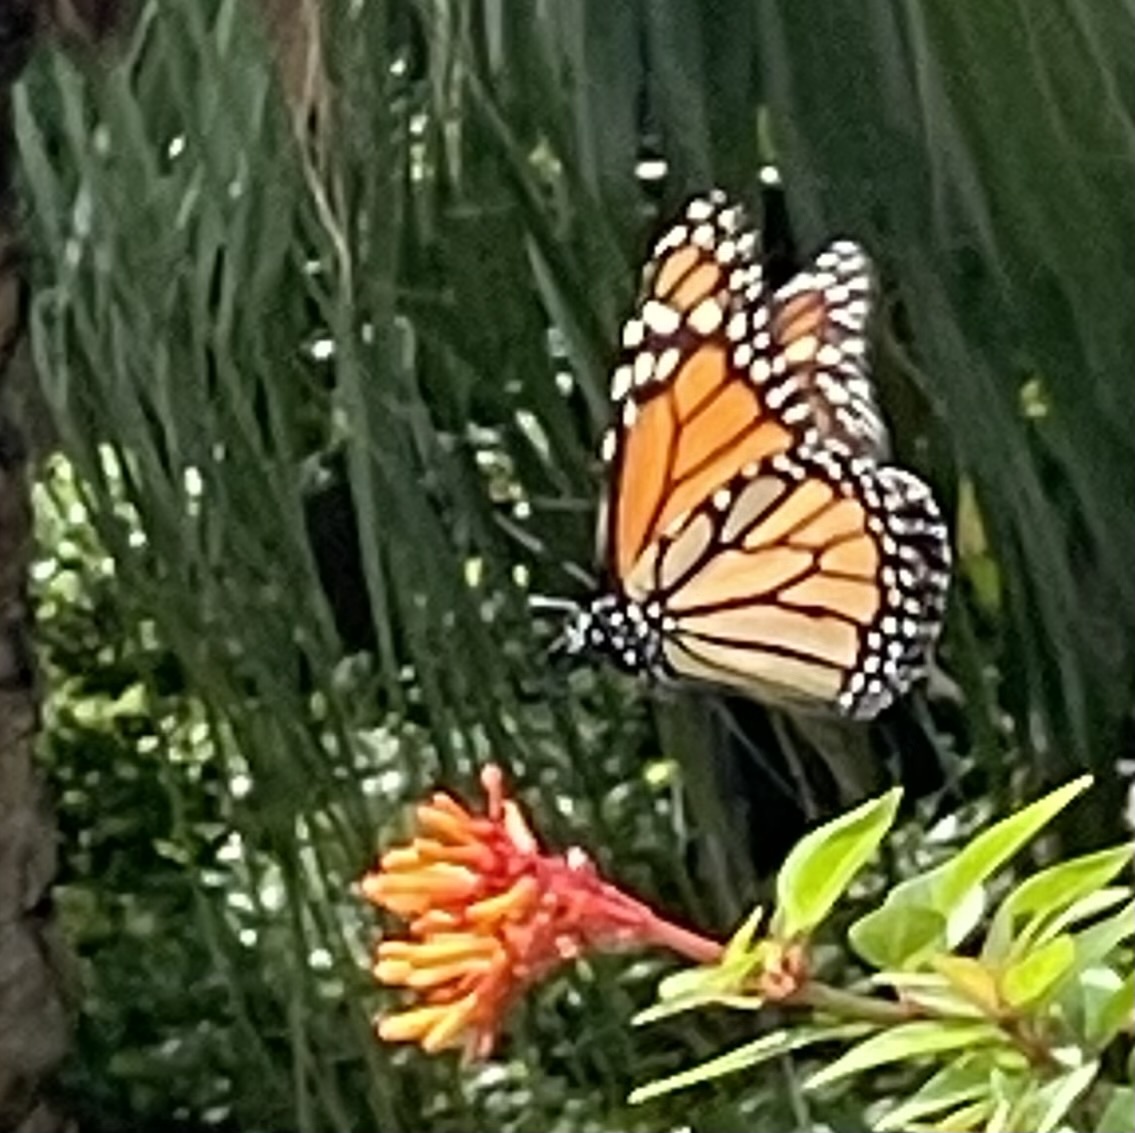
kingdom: Animalia
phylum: Arthropoda
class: Insecta
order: Lepidoptera
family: Nymphalidae
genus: Danaus
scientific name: Danaus plexippus
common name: Monarch
